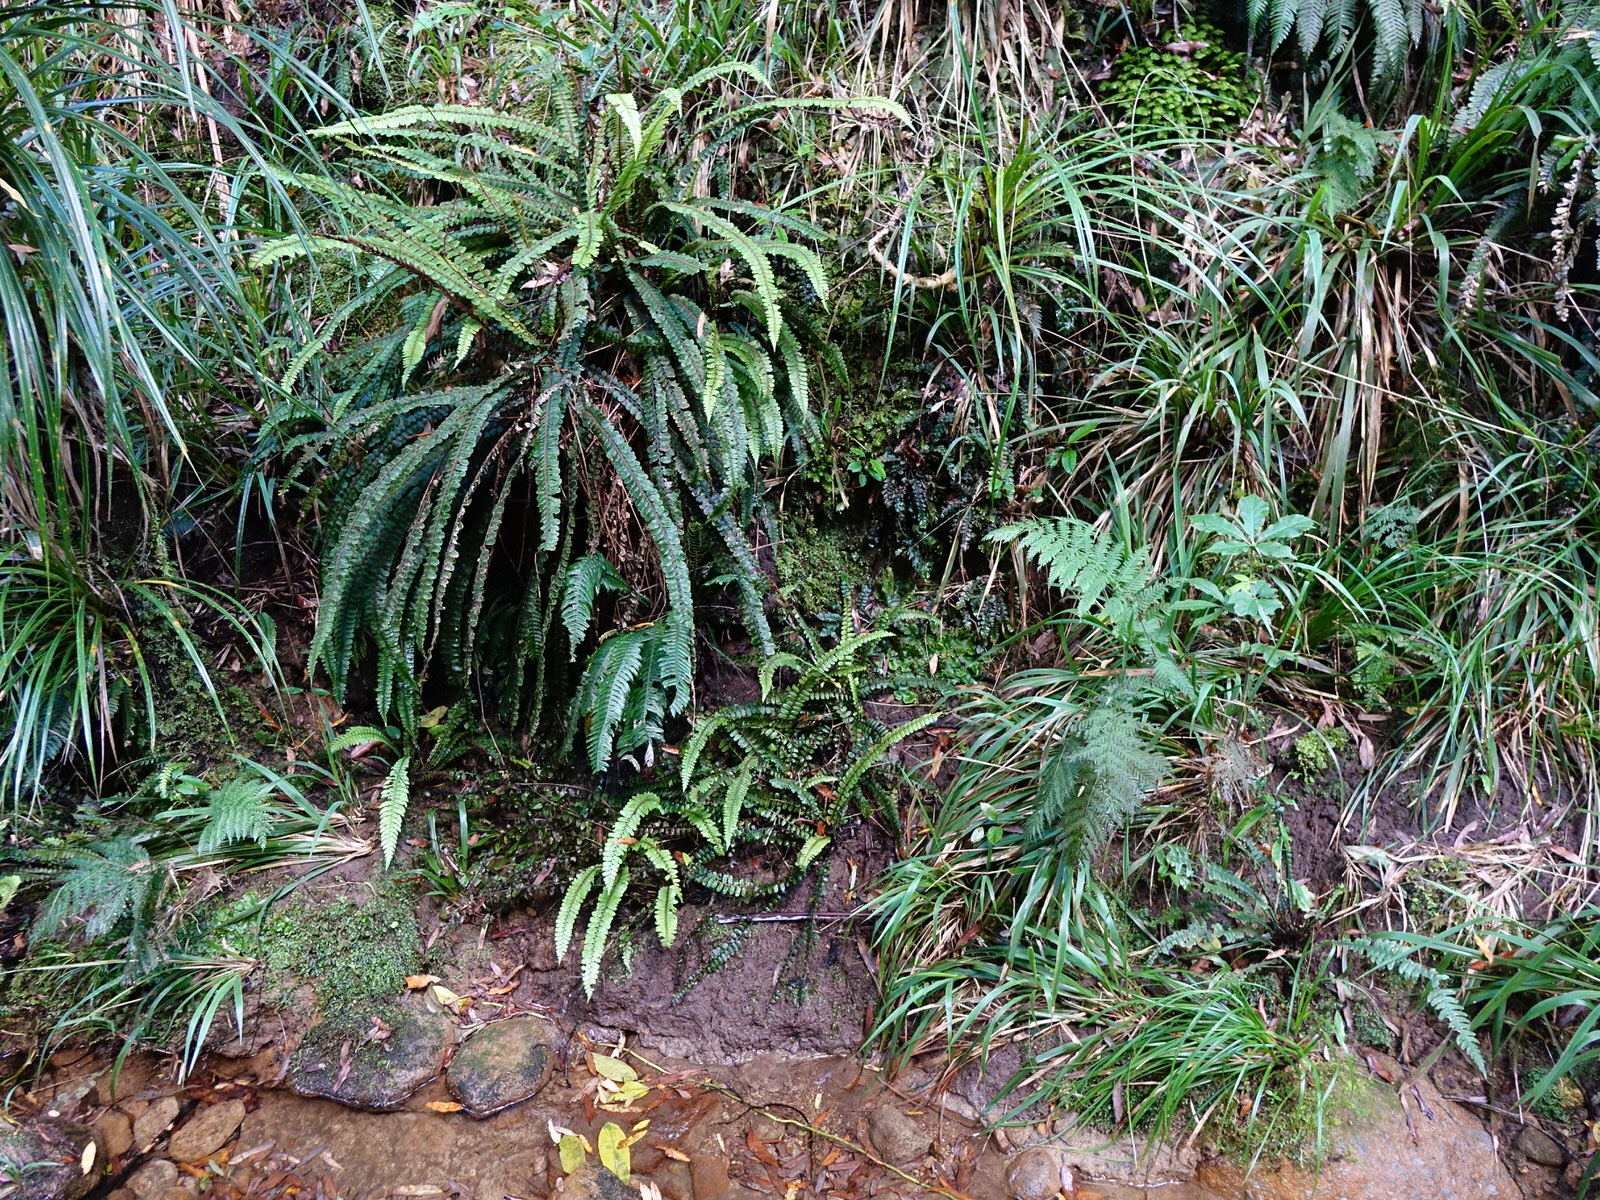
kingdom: Plantae
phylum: Tracheophyta
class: Polypodiopsida
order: Hymenophyllales
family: Hymenophyllaceae
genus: Abrodictyum
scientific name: Abrodictyum elongatum
